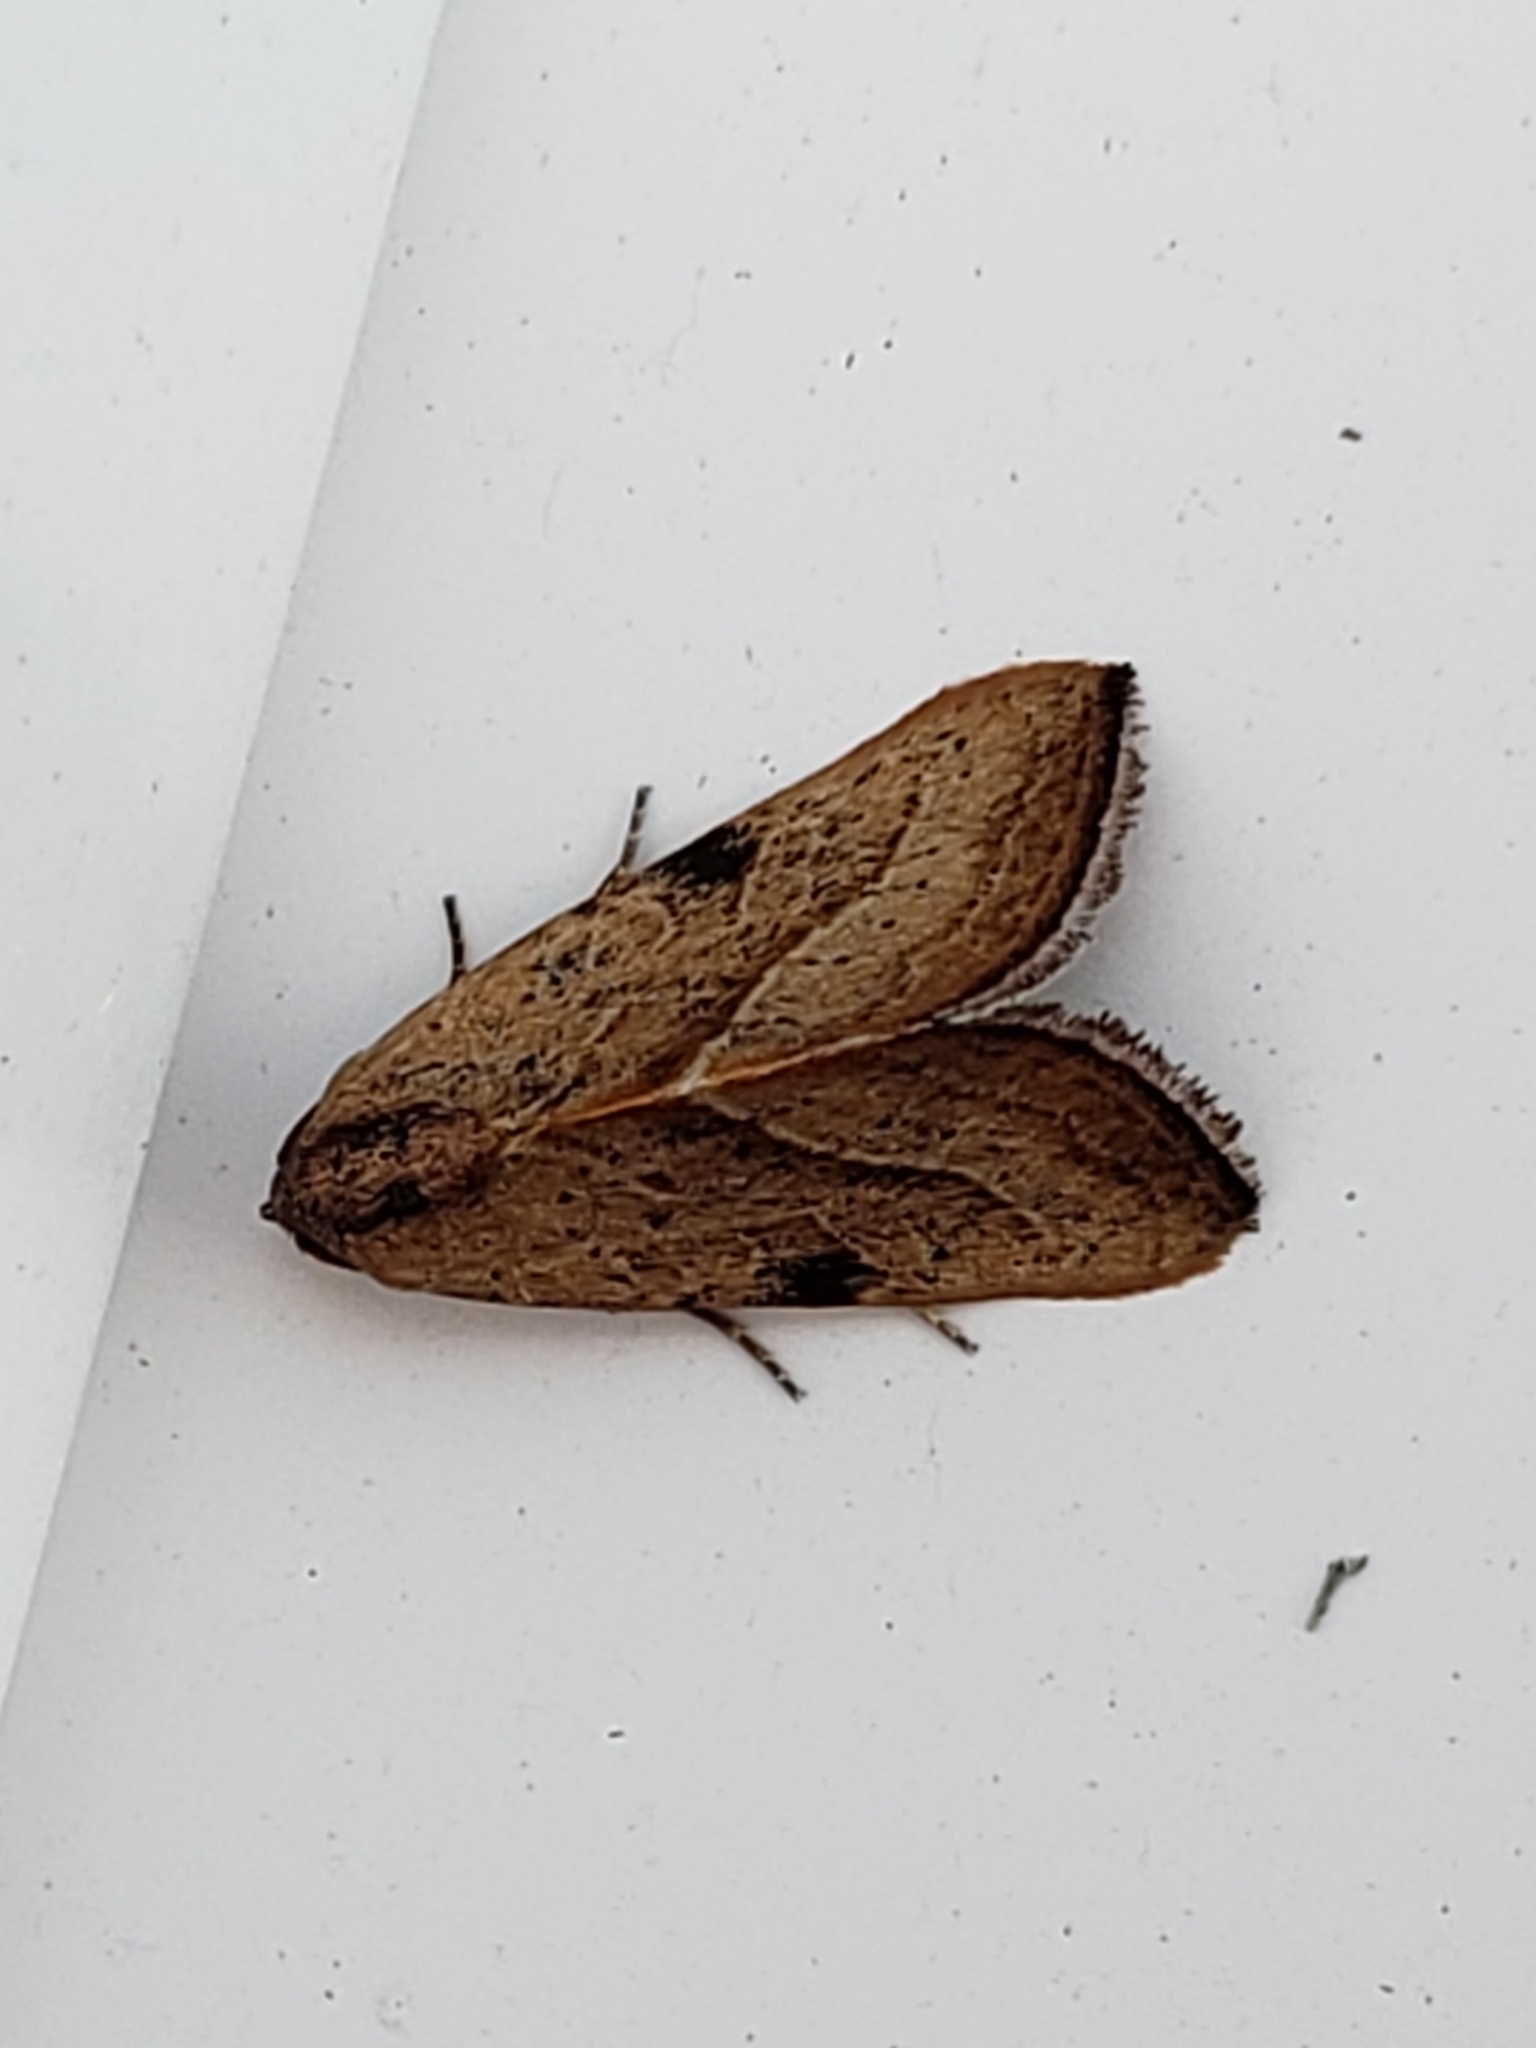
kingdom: Animalia
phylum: Arthropoda
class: Insecta
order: Lepidoptera
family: Noctuidae
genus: Galgula
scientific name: Galgula partita
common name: Wedgeling
